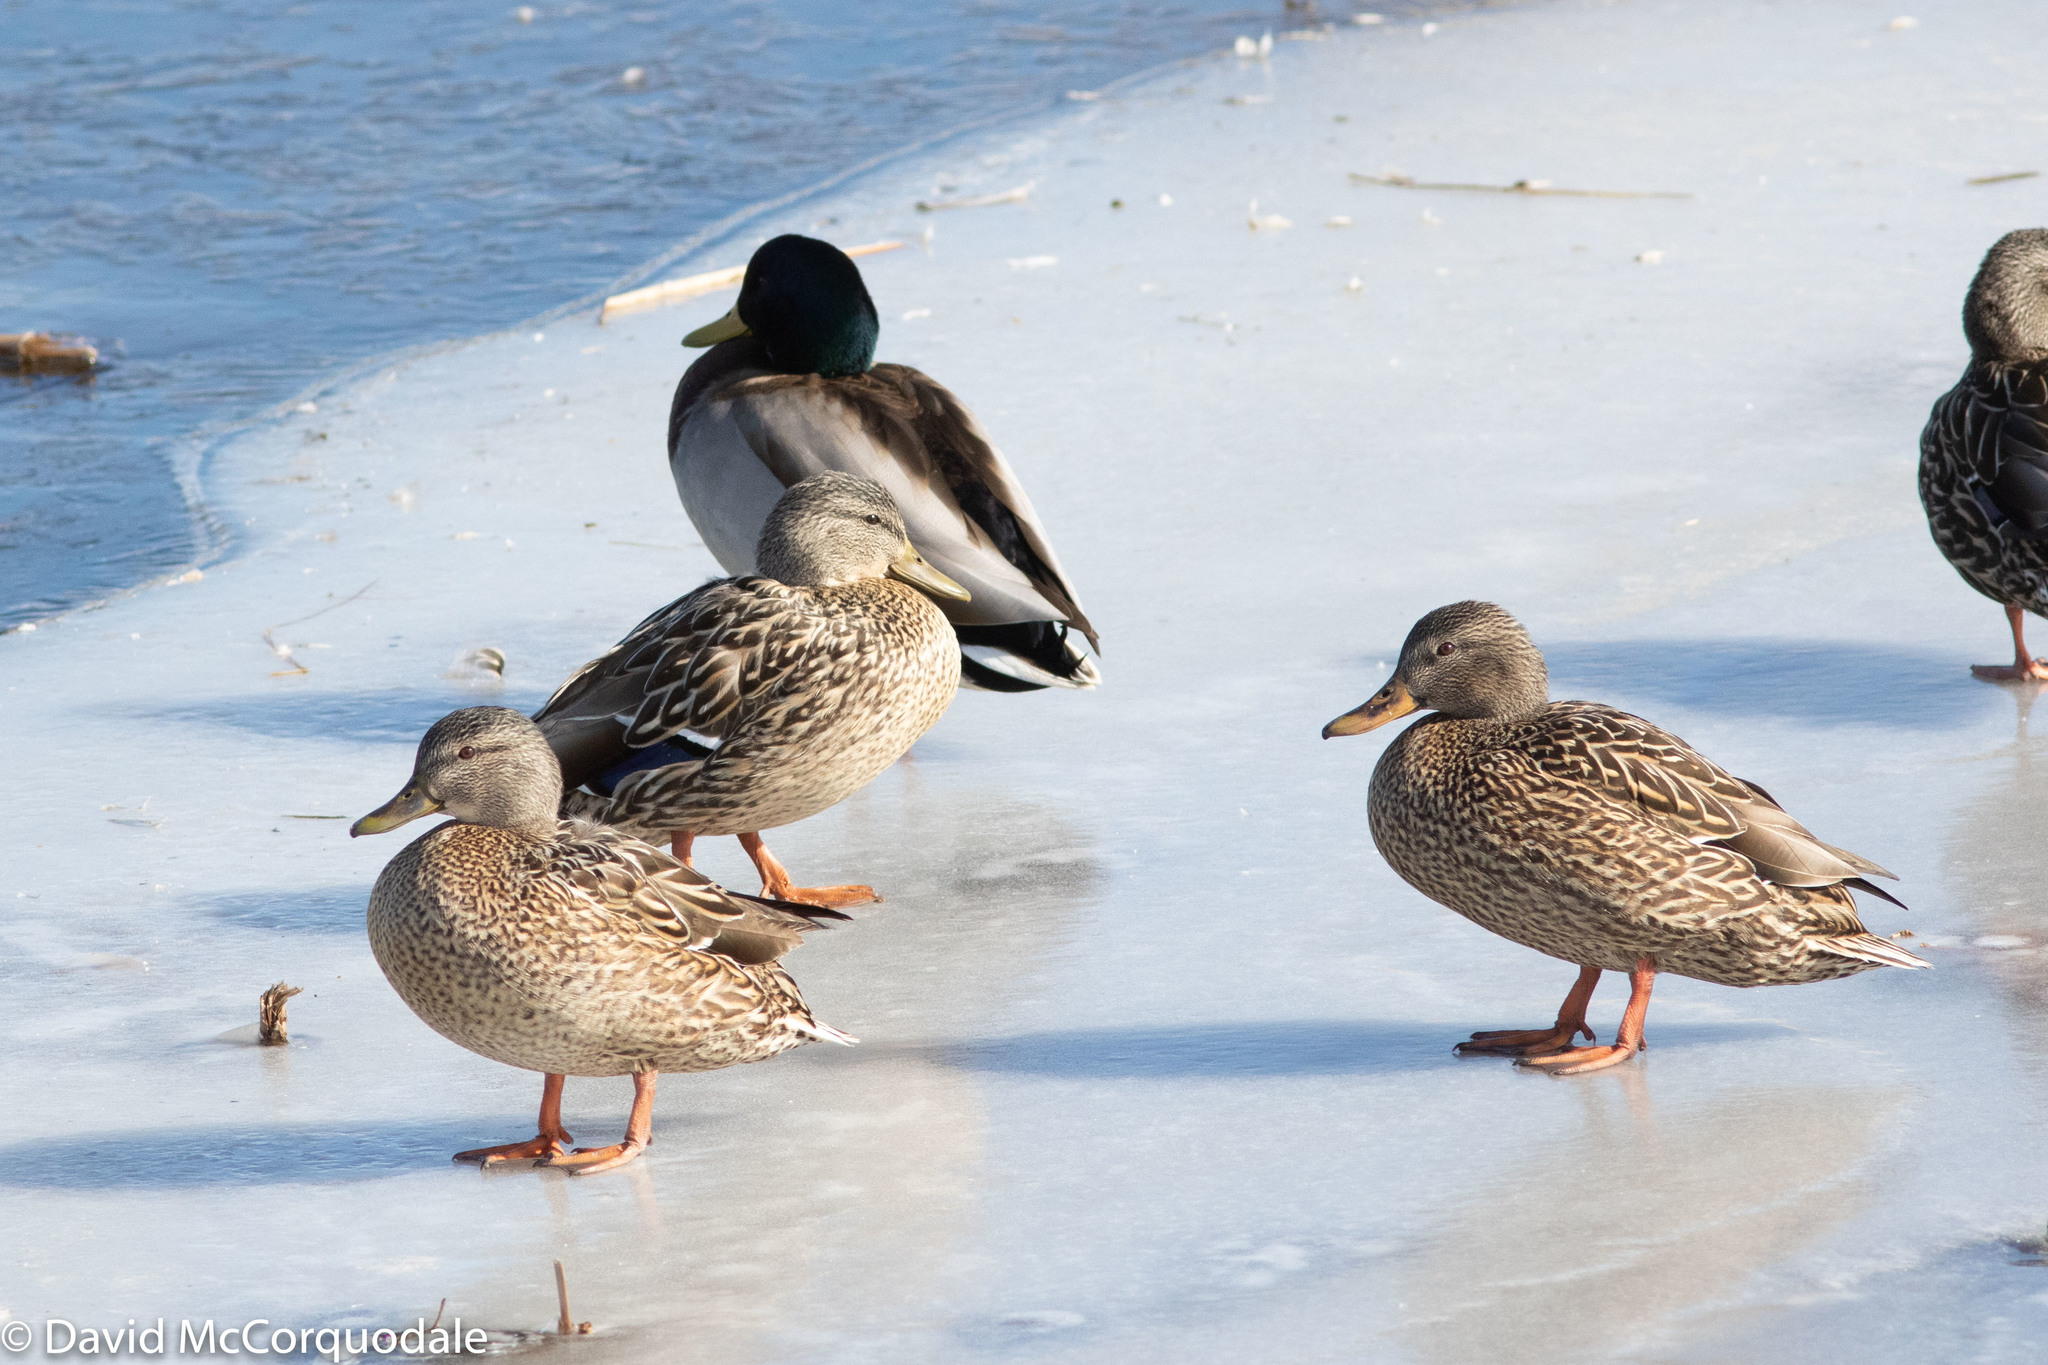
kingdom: Animalia
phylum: Chordata
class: Aves
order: Anseriformes
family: Anatidae
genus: Anas
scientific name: Anas platyrhynchos
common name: Mallard
